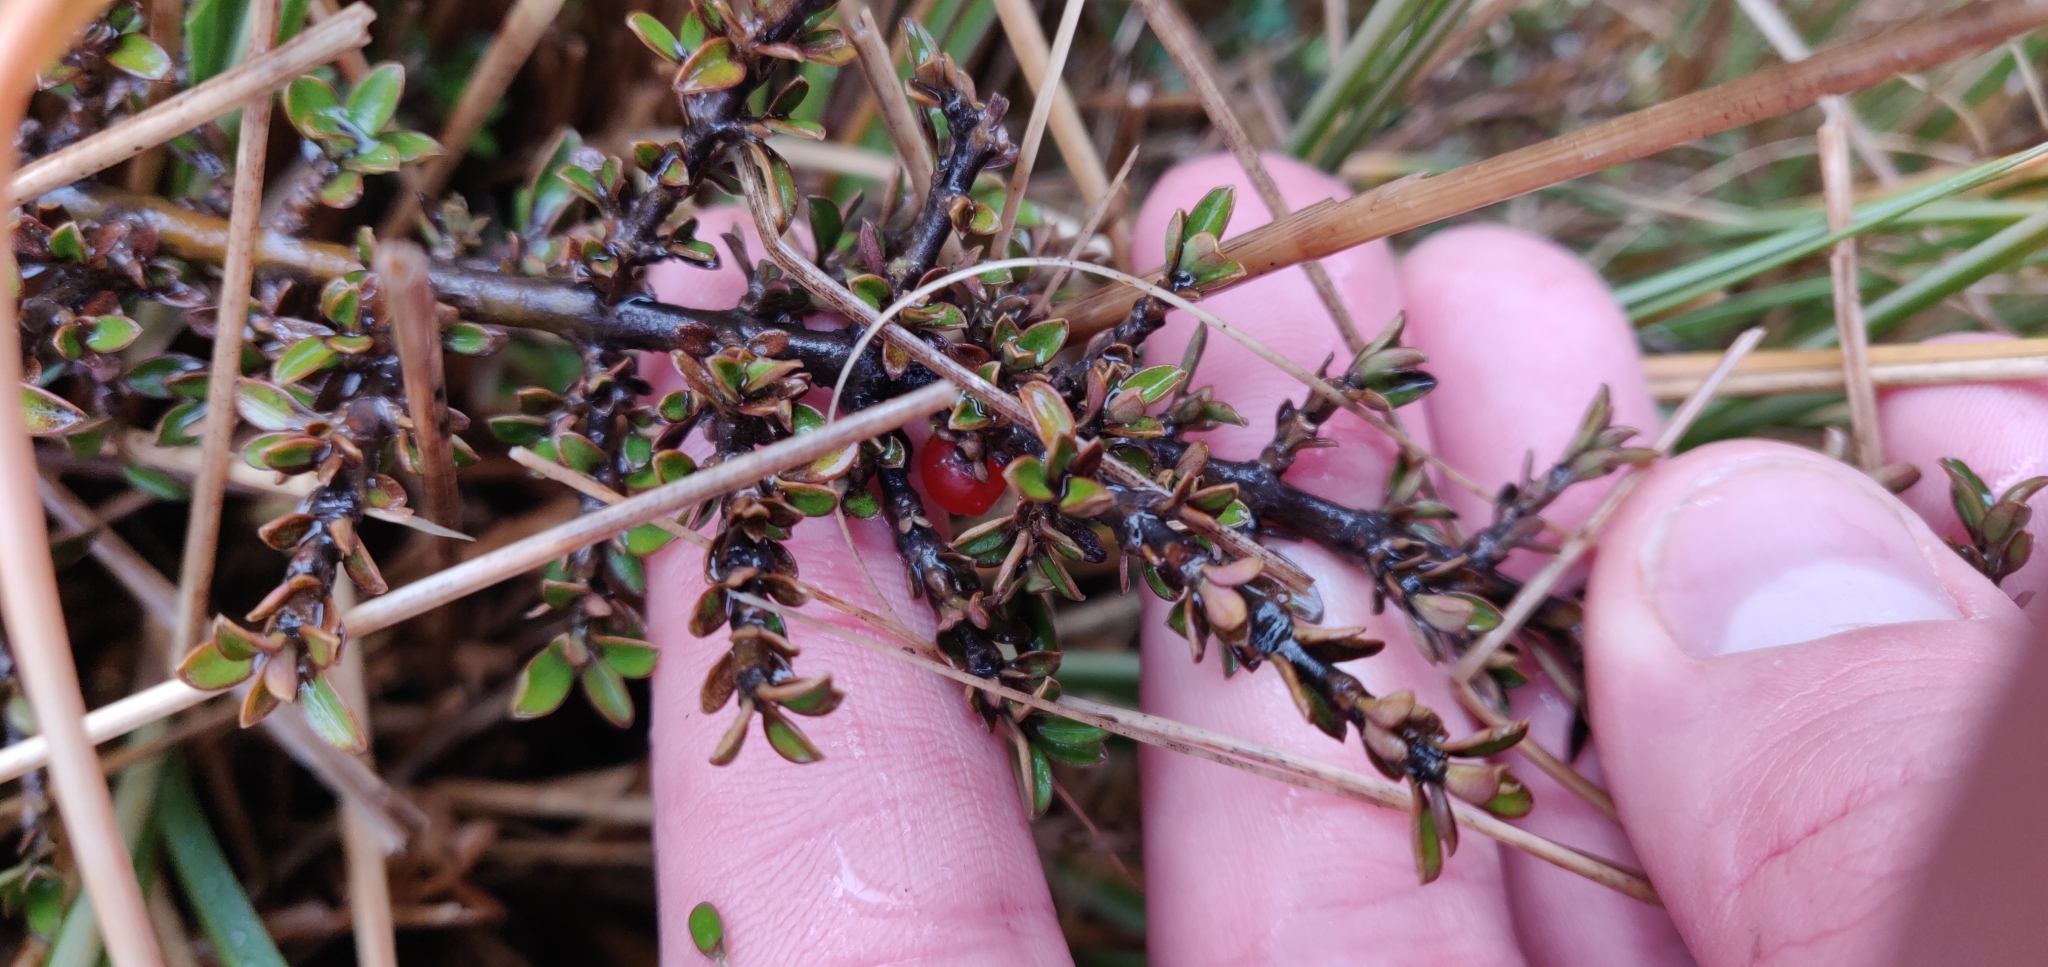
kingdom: Plantae
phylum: Tracheophyta
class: Magnoliopsida
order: Gentianales
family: Rubiaceae
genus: Coprosma
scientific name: Coprosma depressa
